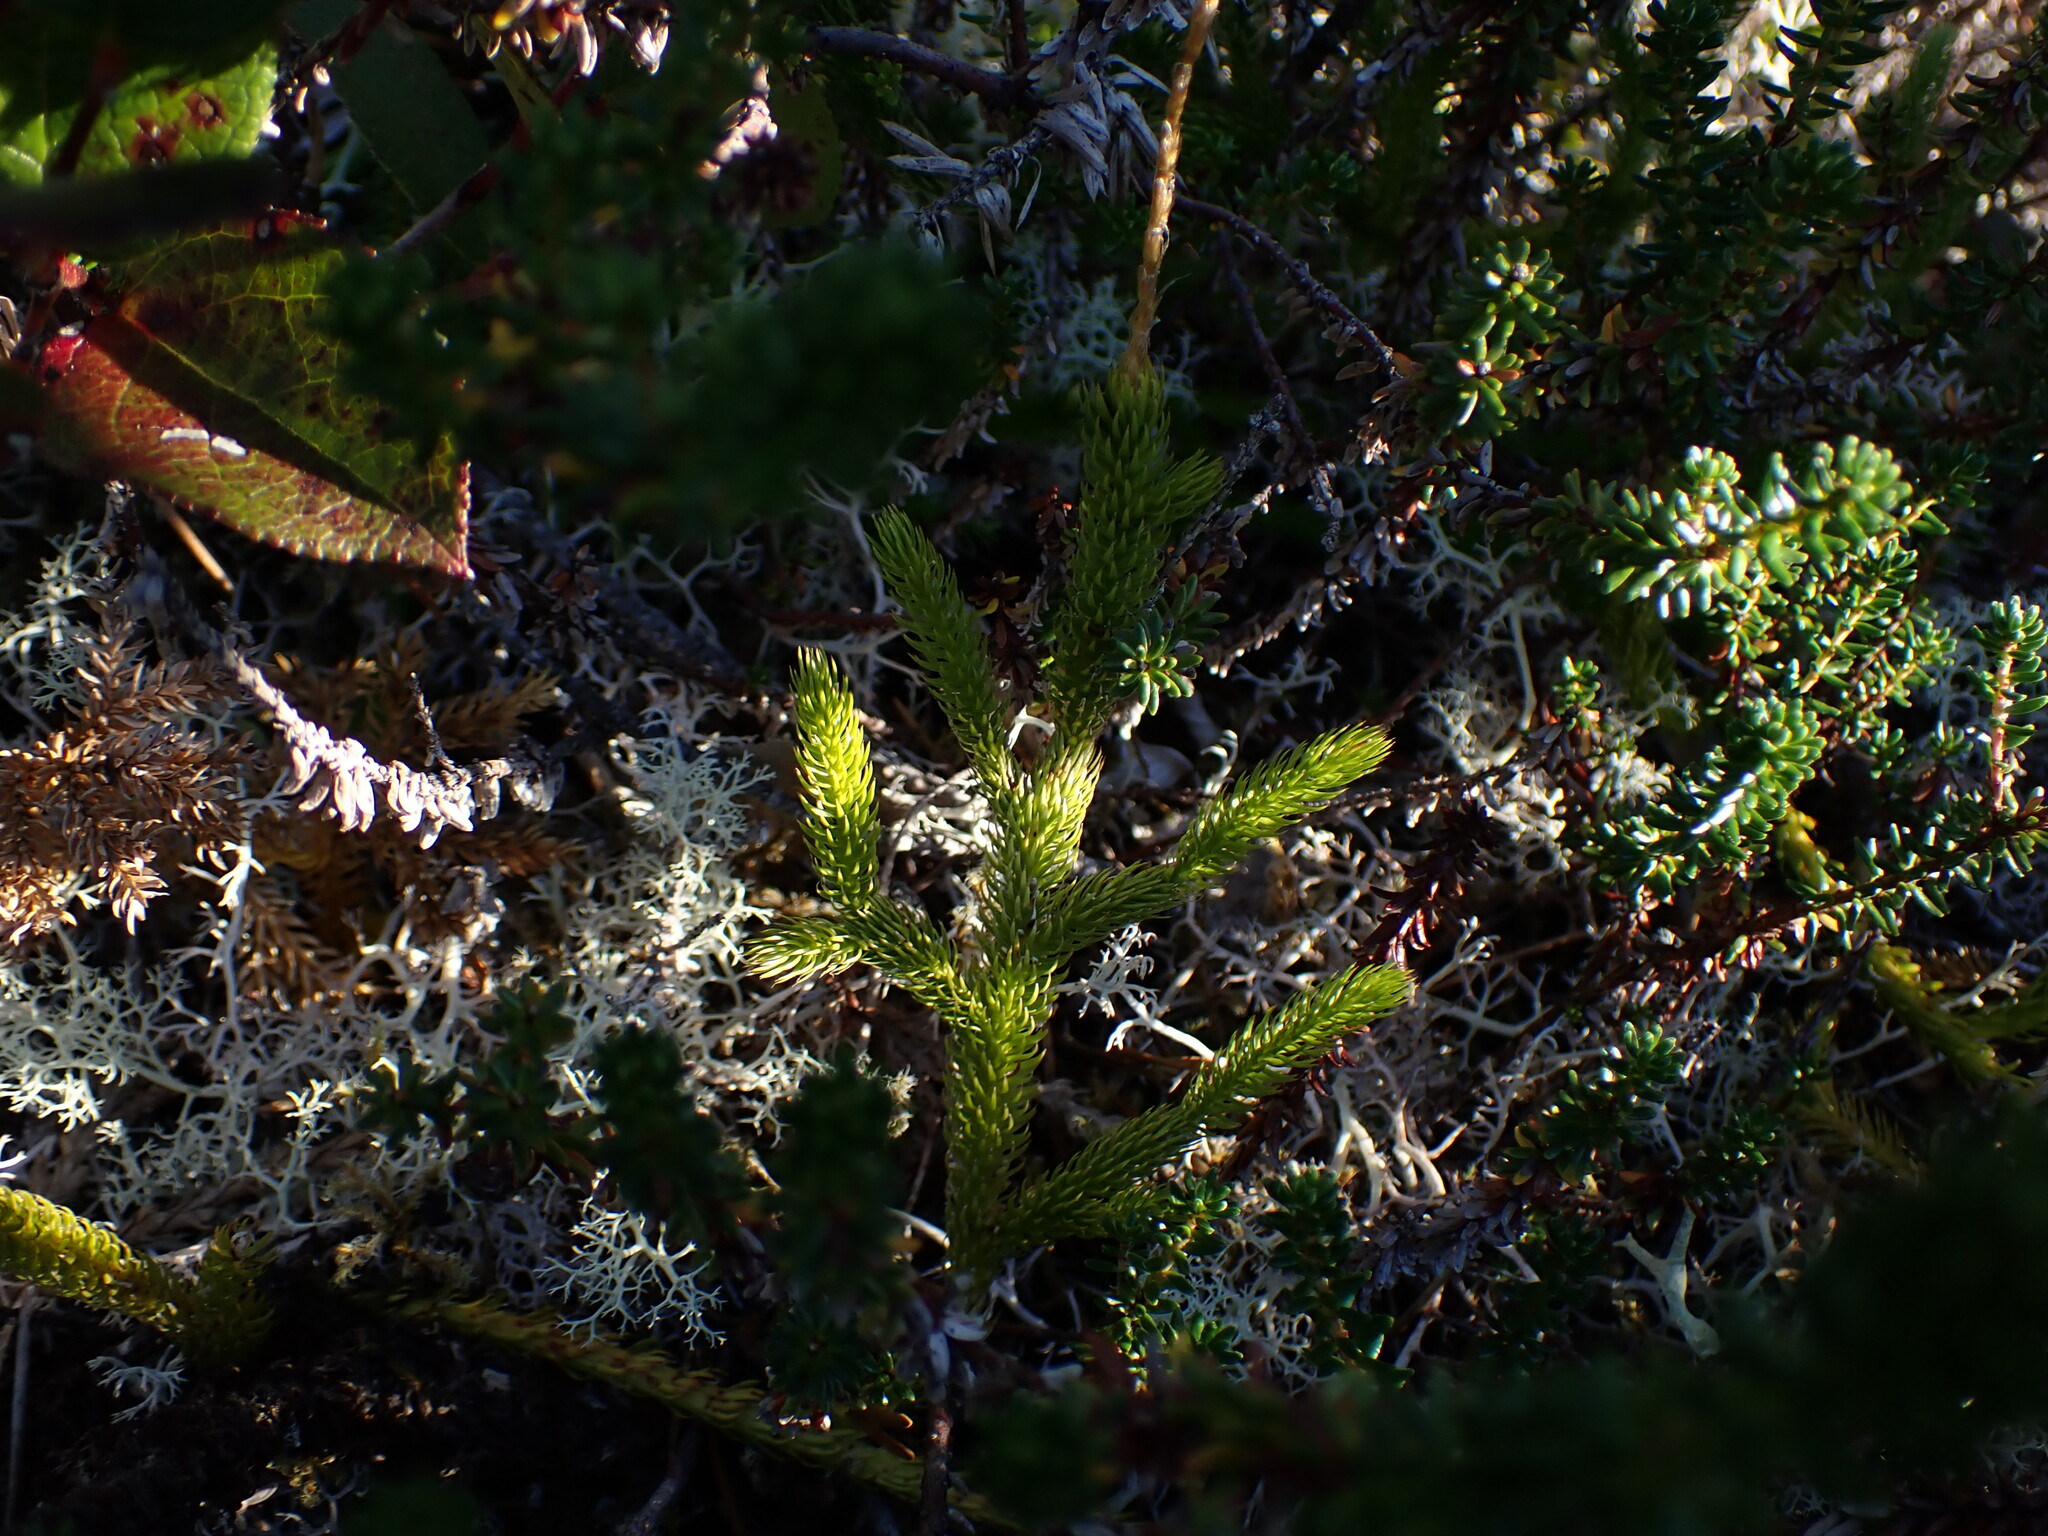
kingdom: Plantae
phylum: Tracheophyta
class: Lycopodiopsida
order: Lycopodiales
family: Lycopodiaceae
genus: Lycopodium
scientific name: Lycopodium clavatum
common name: Stag's-horn clubmoss
